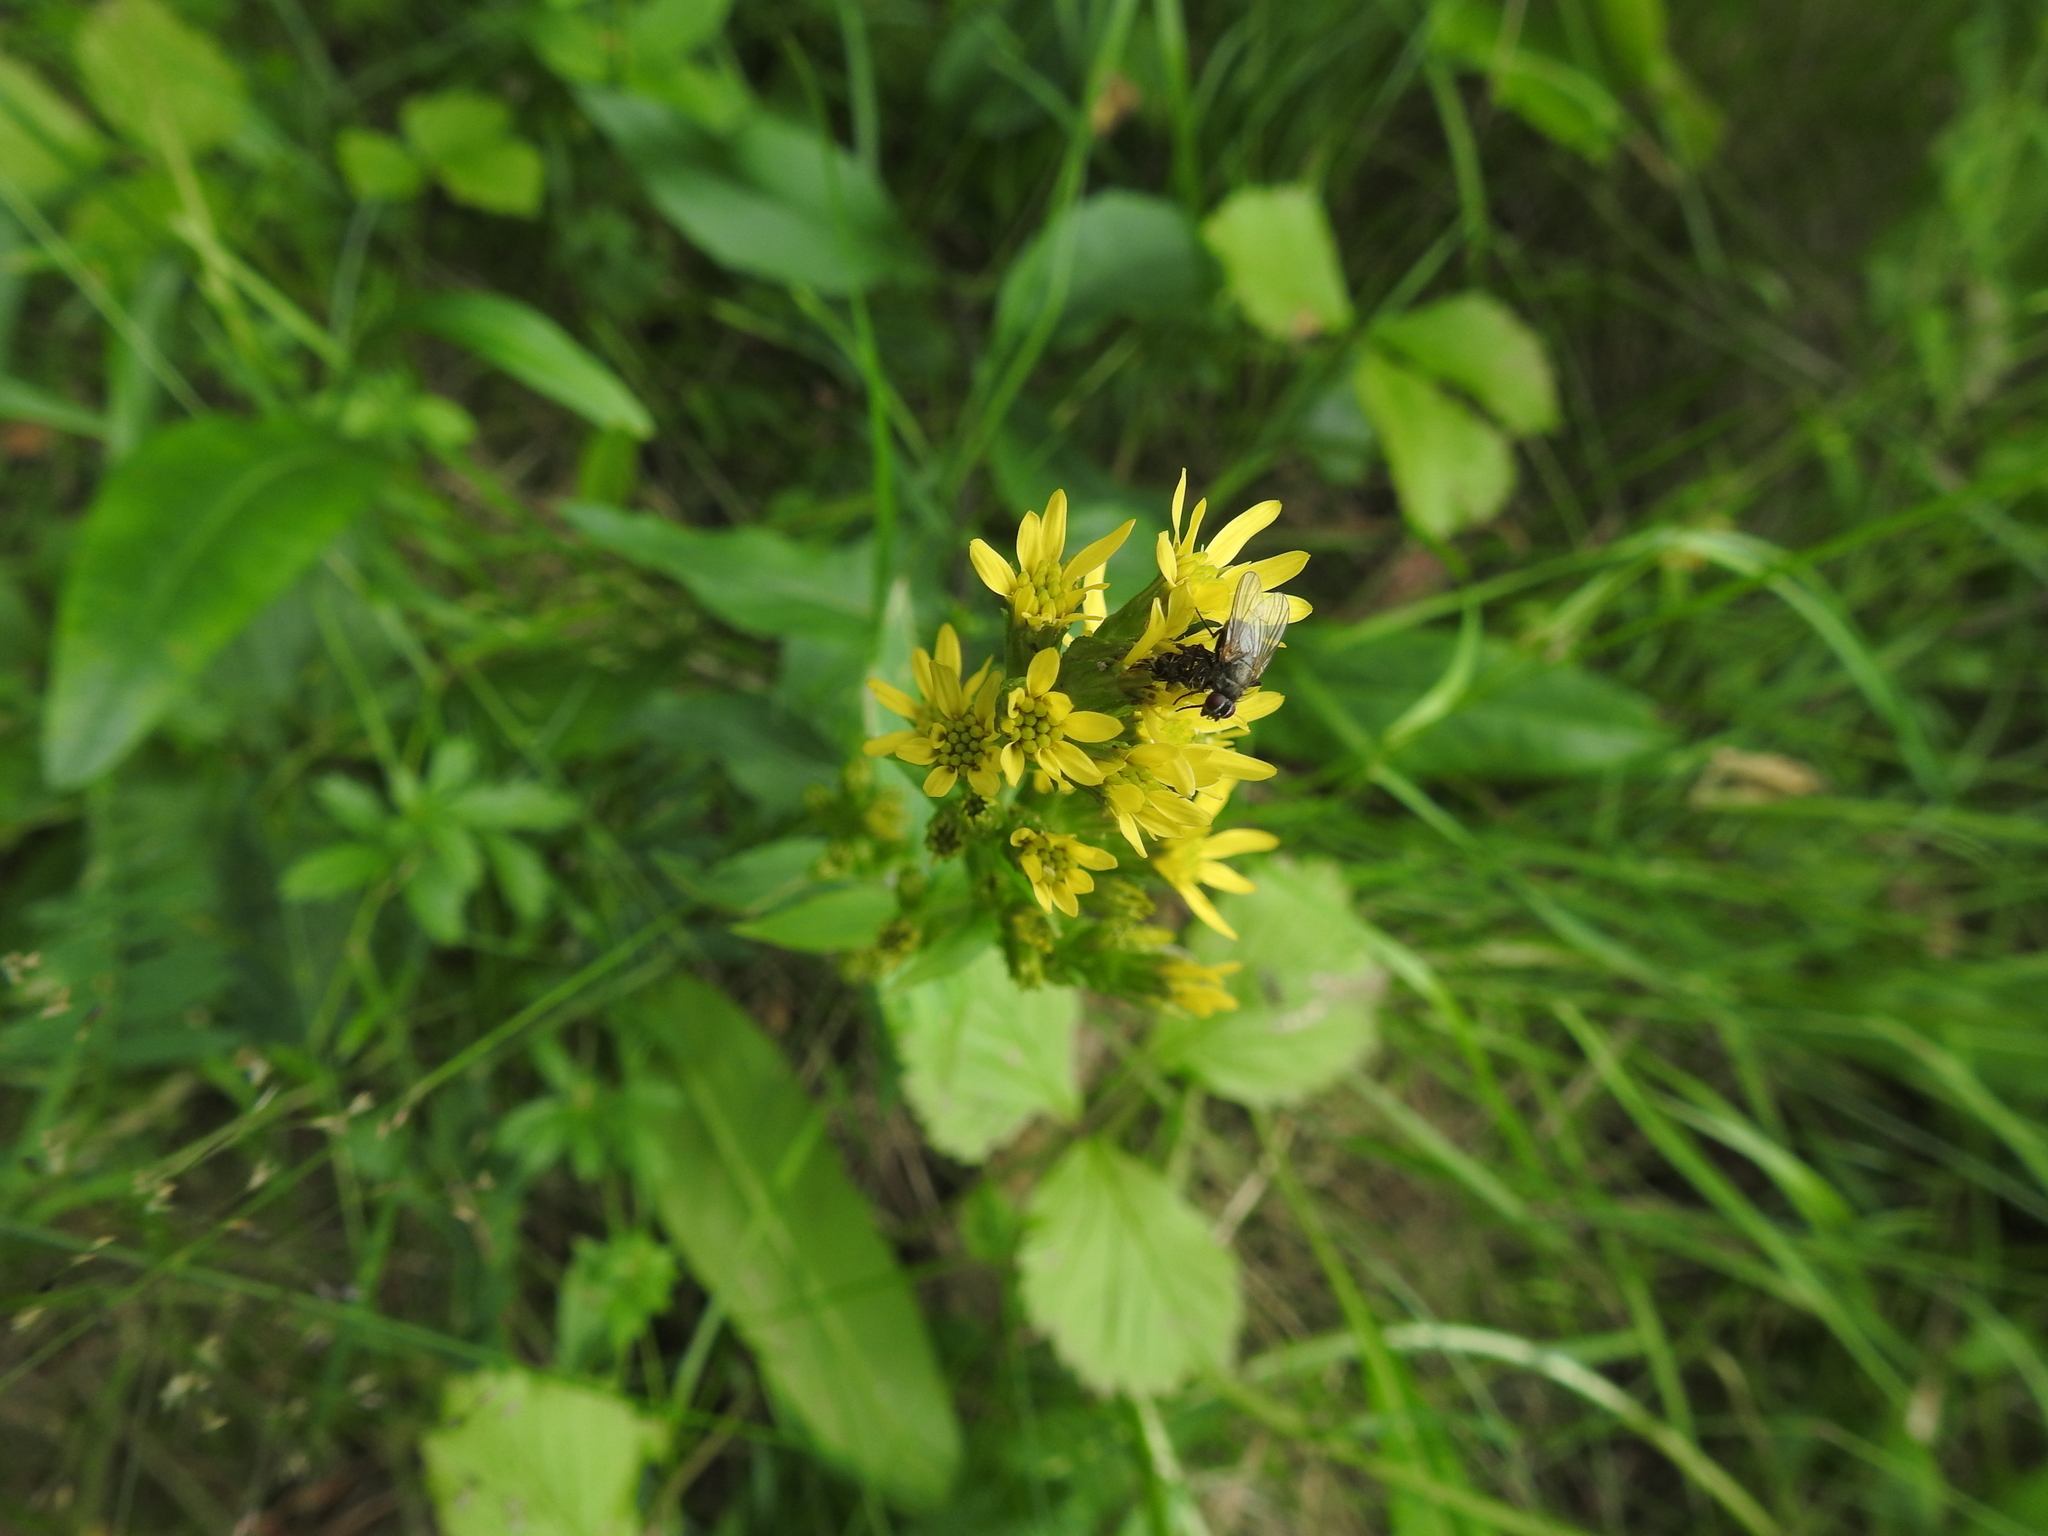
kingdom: Plantae
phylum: Tracheophyta
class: Magnoliopsida
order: Asterales
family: Asteraceae
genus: Solidago
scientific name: Solidago virgaurea
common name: Goldenrod
